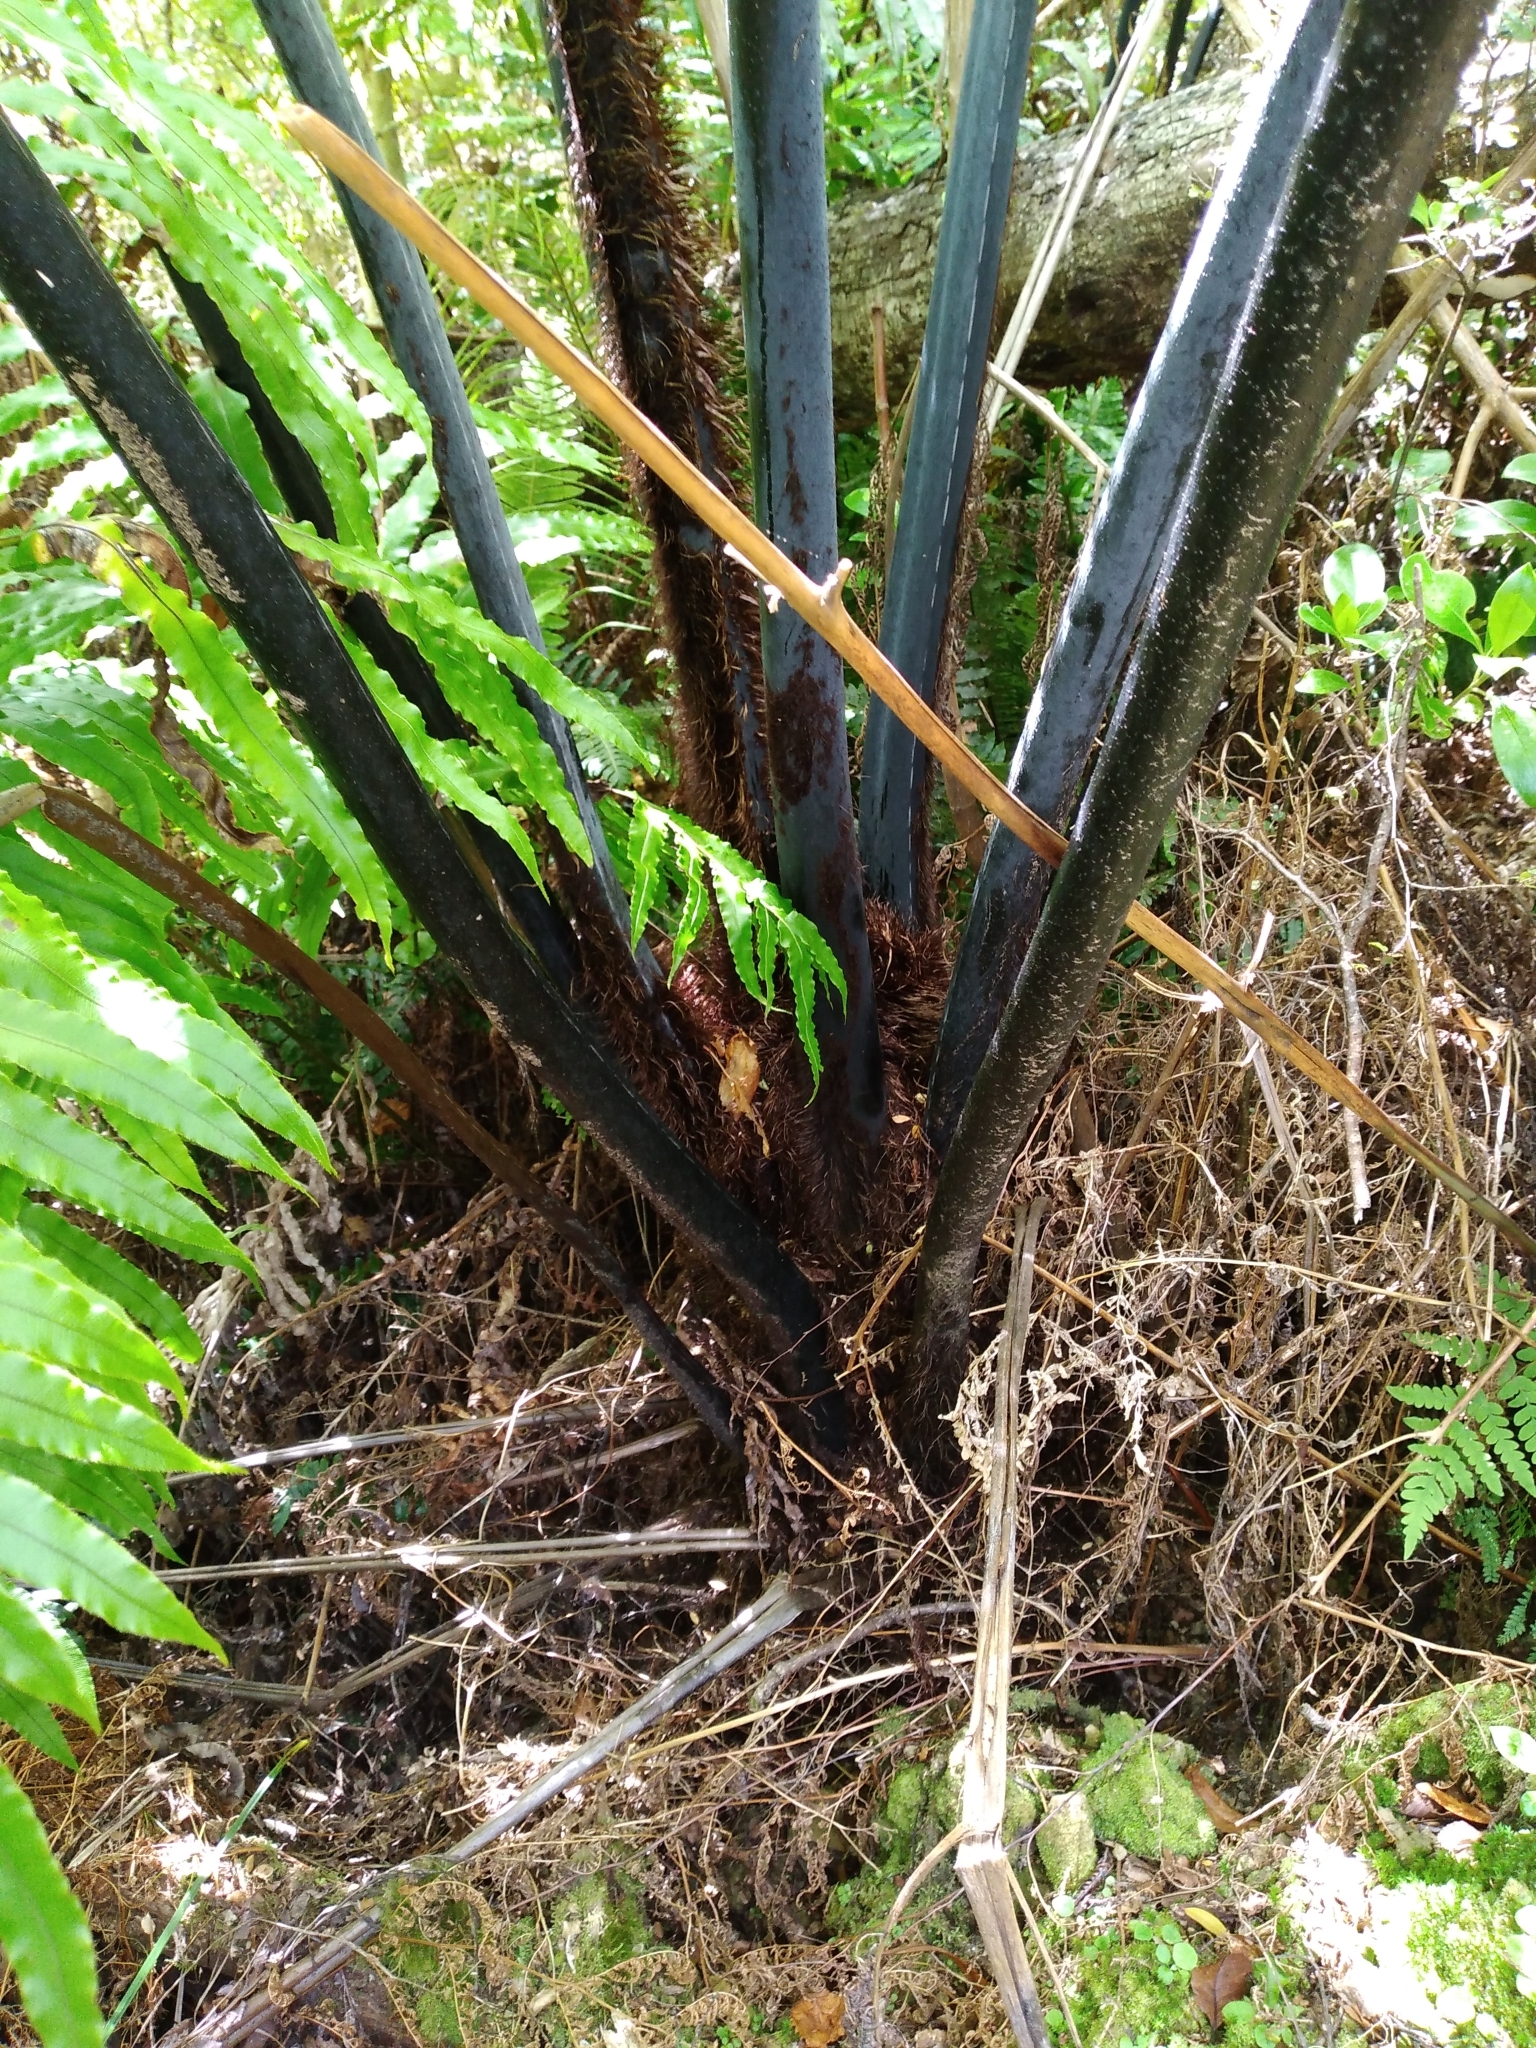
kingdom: Plantae
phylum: Tracheophyta
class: Polypodiopsida
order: Cyatheales
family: Cyatheaceae
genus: Sphaeropteris
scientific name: Sphaeropteris medullaris
